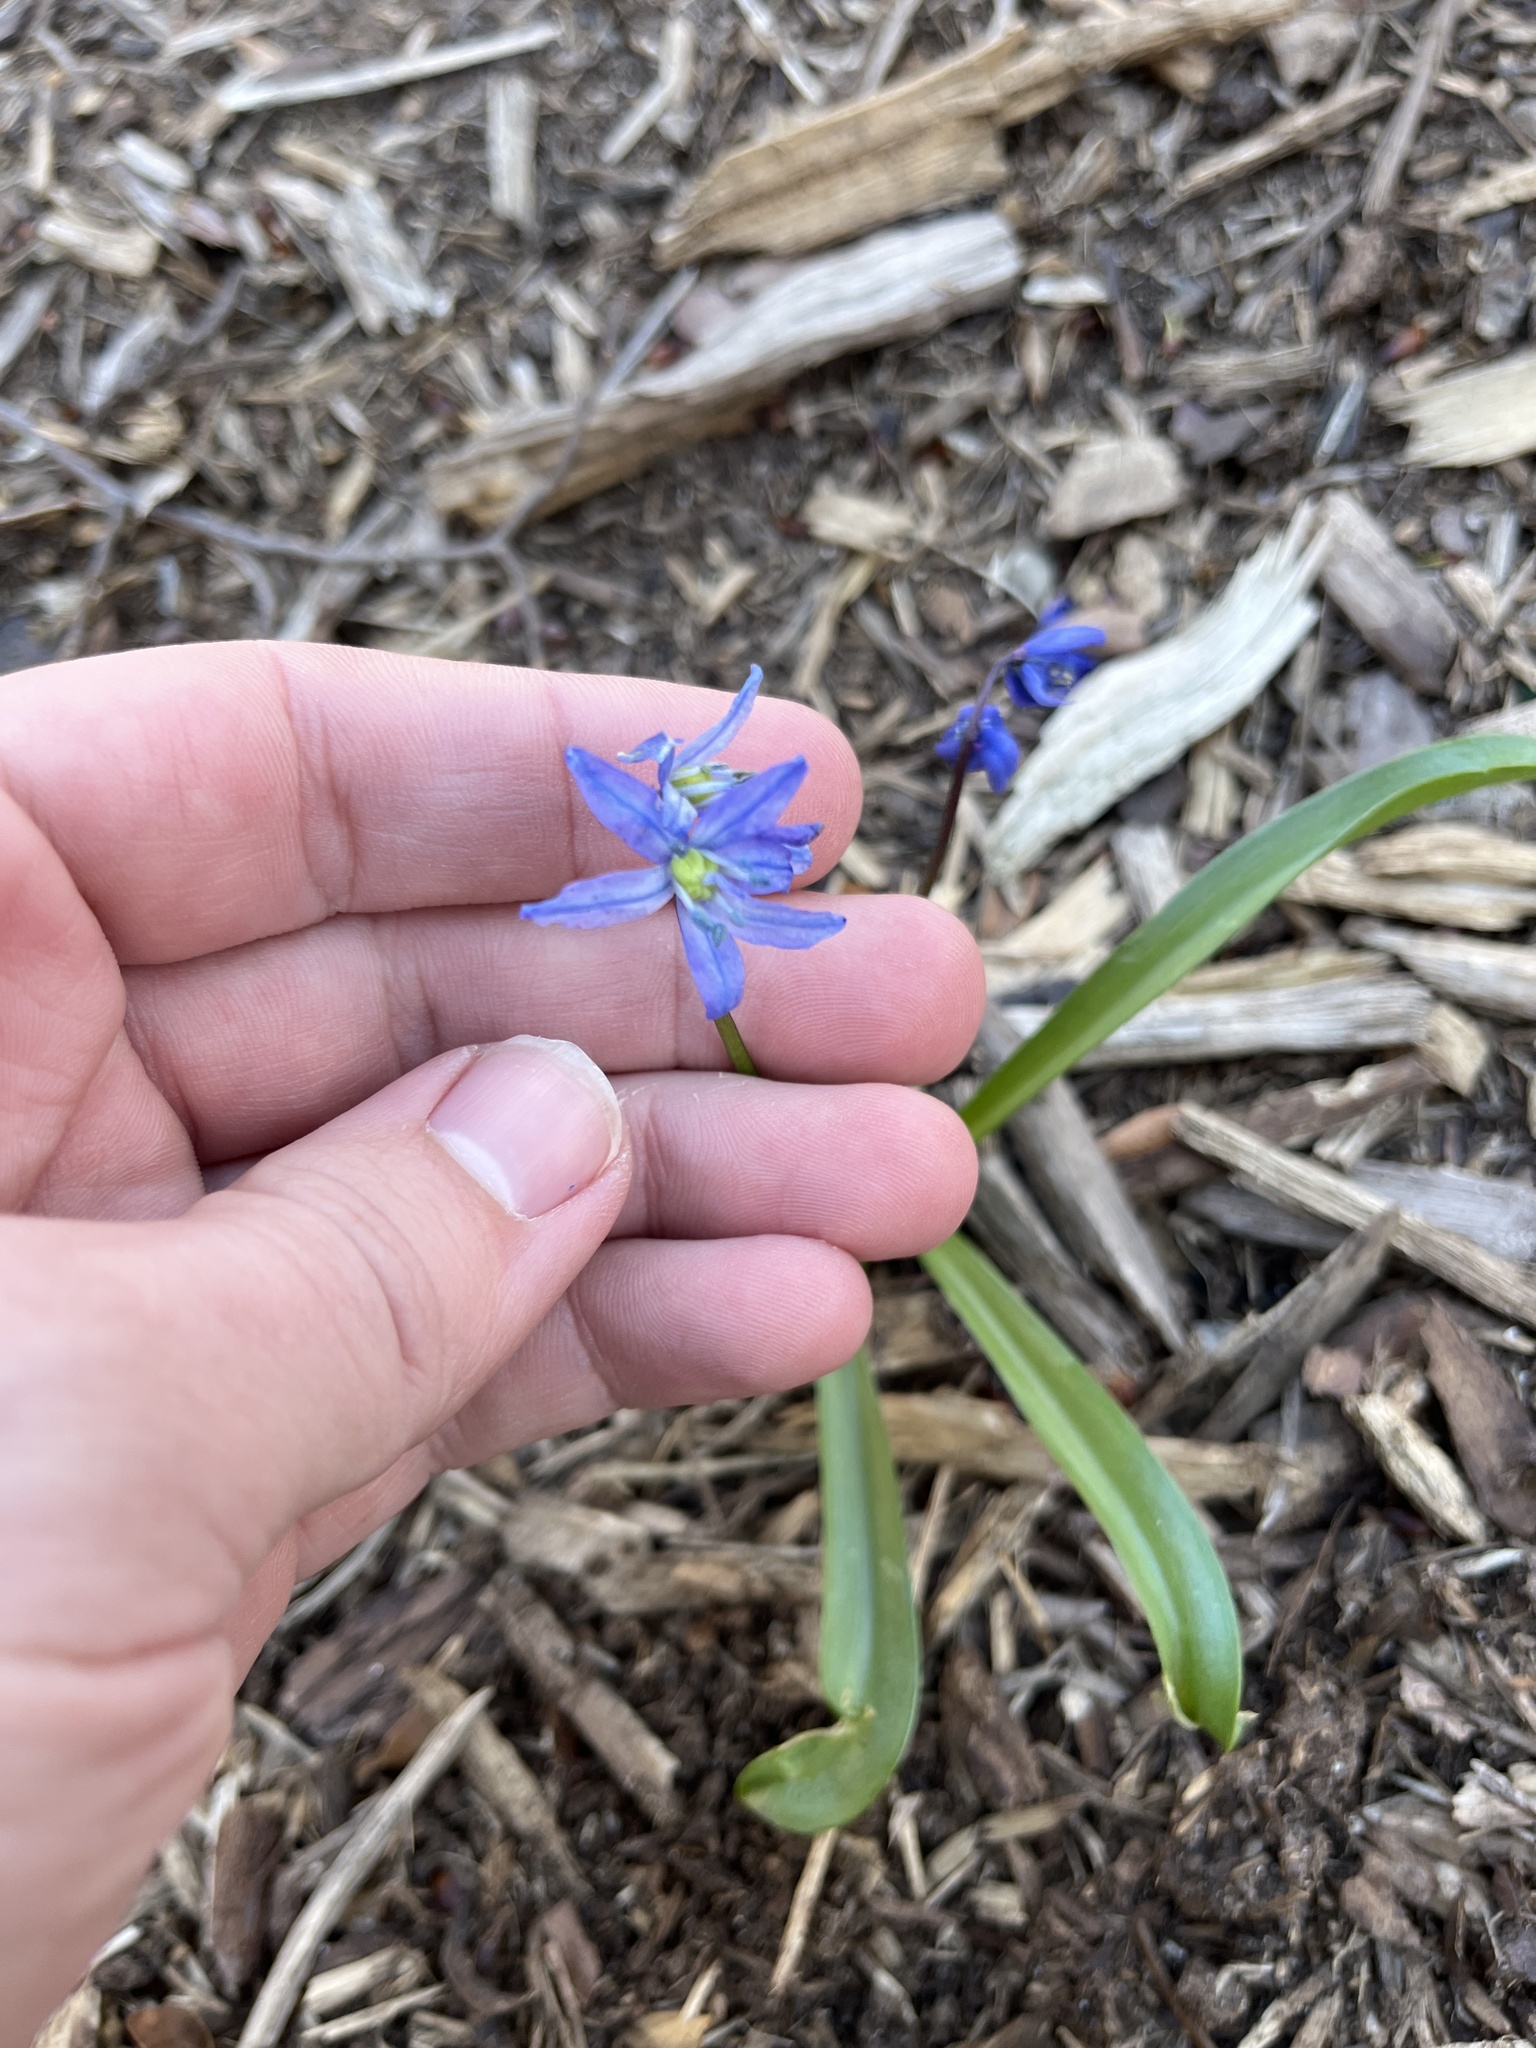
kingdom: Plantae
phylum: Tracheophyta
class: Liliopsida
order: Asparagales
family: Asparagaceae
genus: Scilla
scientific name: Scilla siberica
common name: Siberian squill
